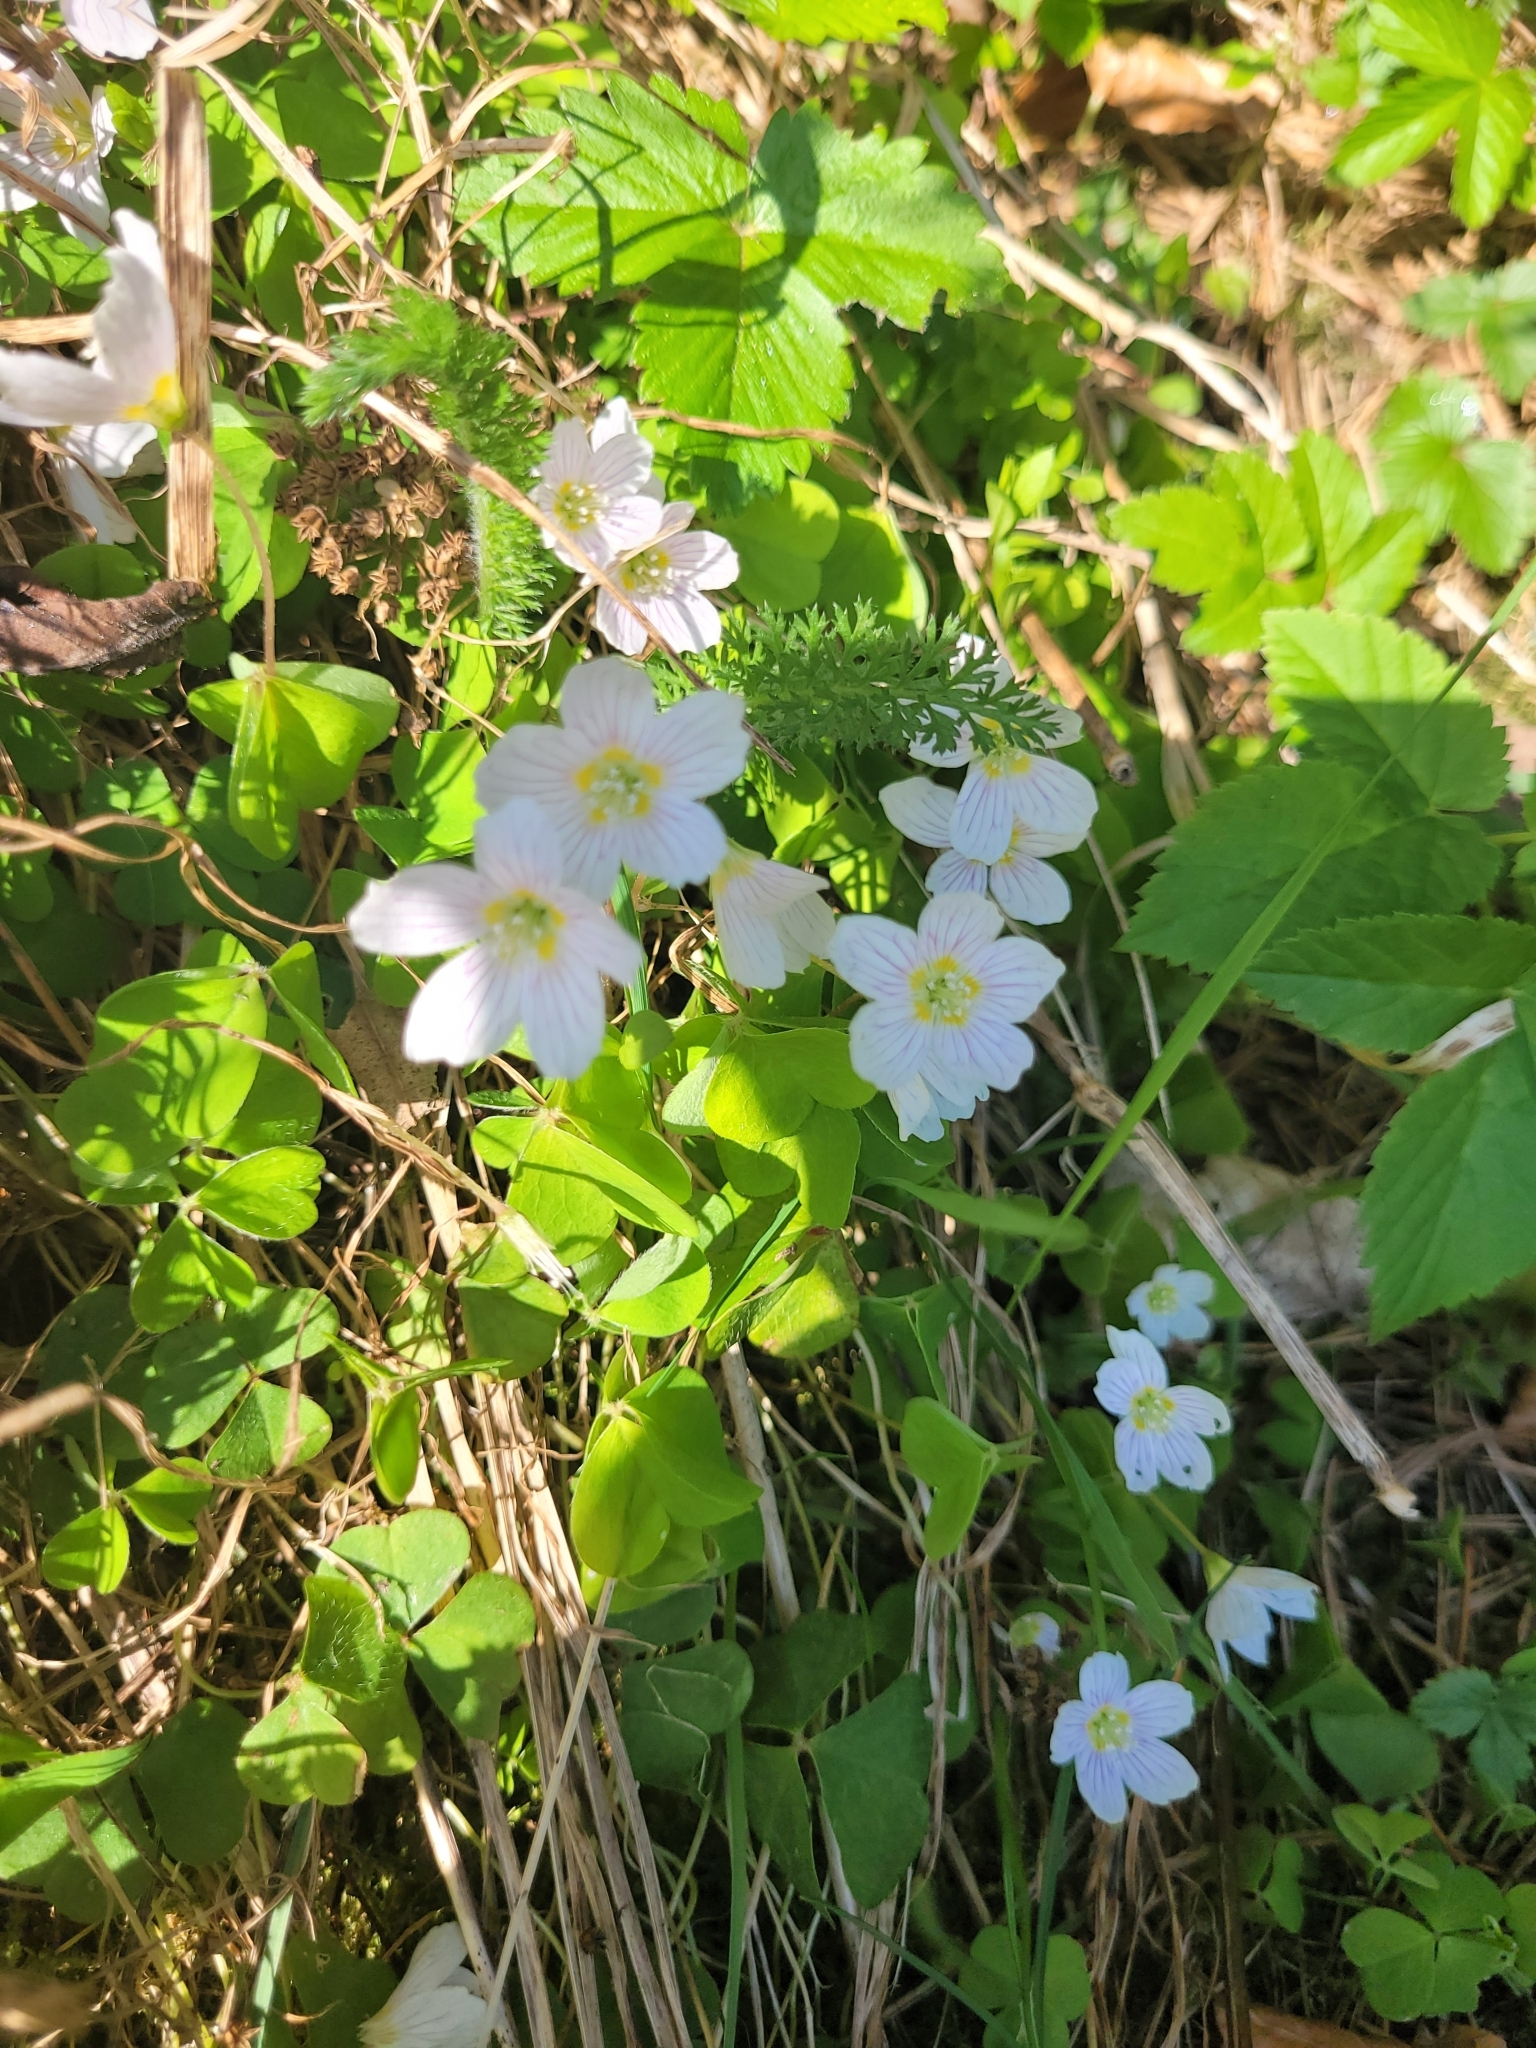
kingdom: Plantae
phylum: Tracheophyta
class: Magnoliopsida
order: Oxalidales
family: Oxalidaceae
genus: Oxalis
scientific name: Oxalis acetosella
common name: Wood-sorrel
